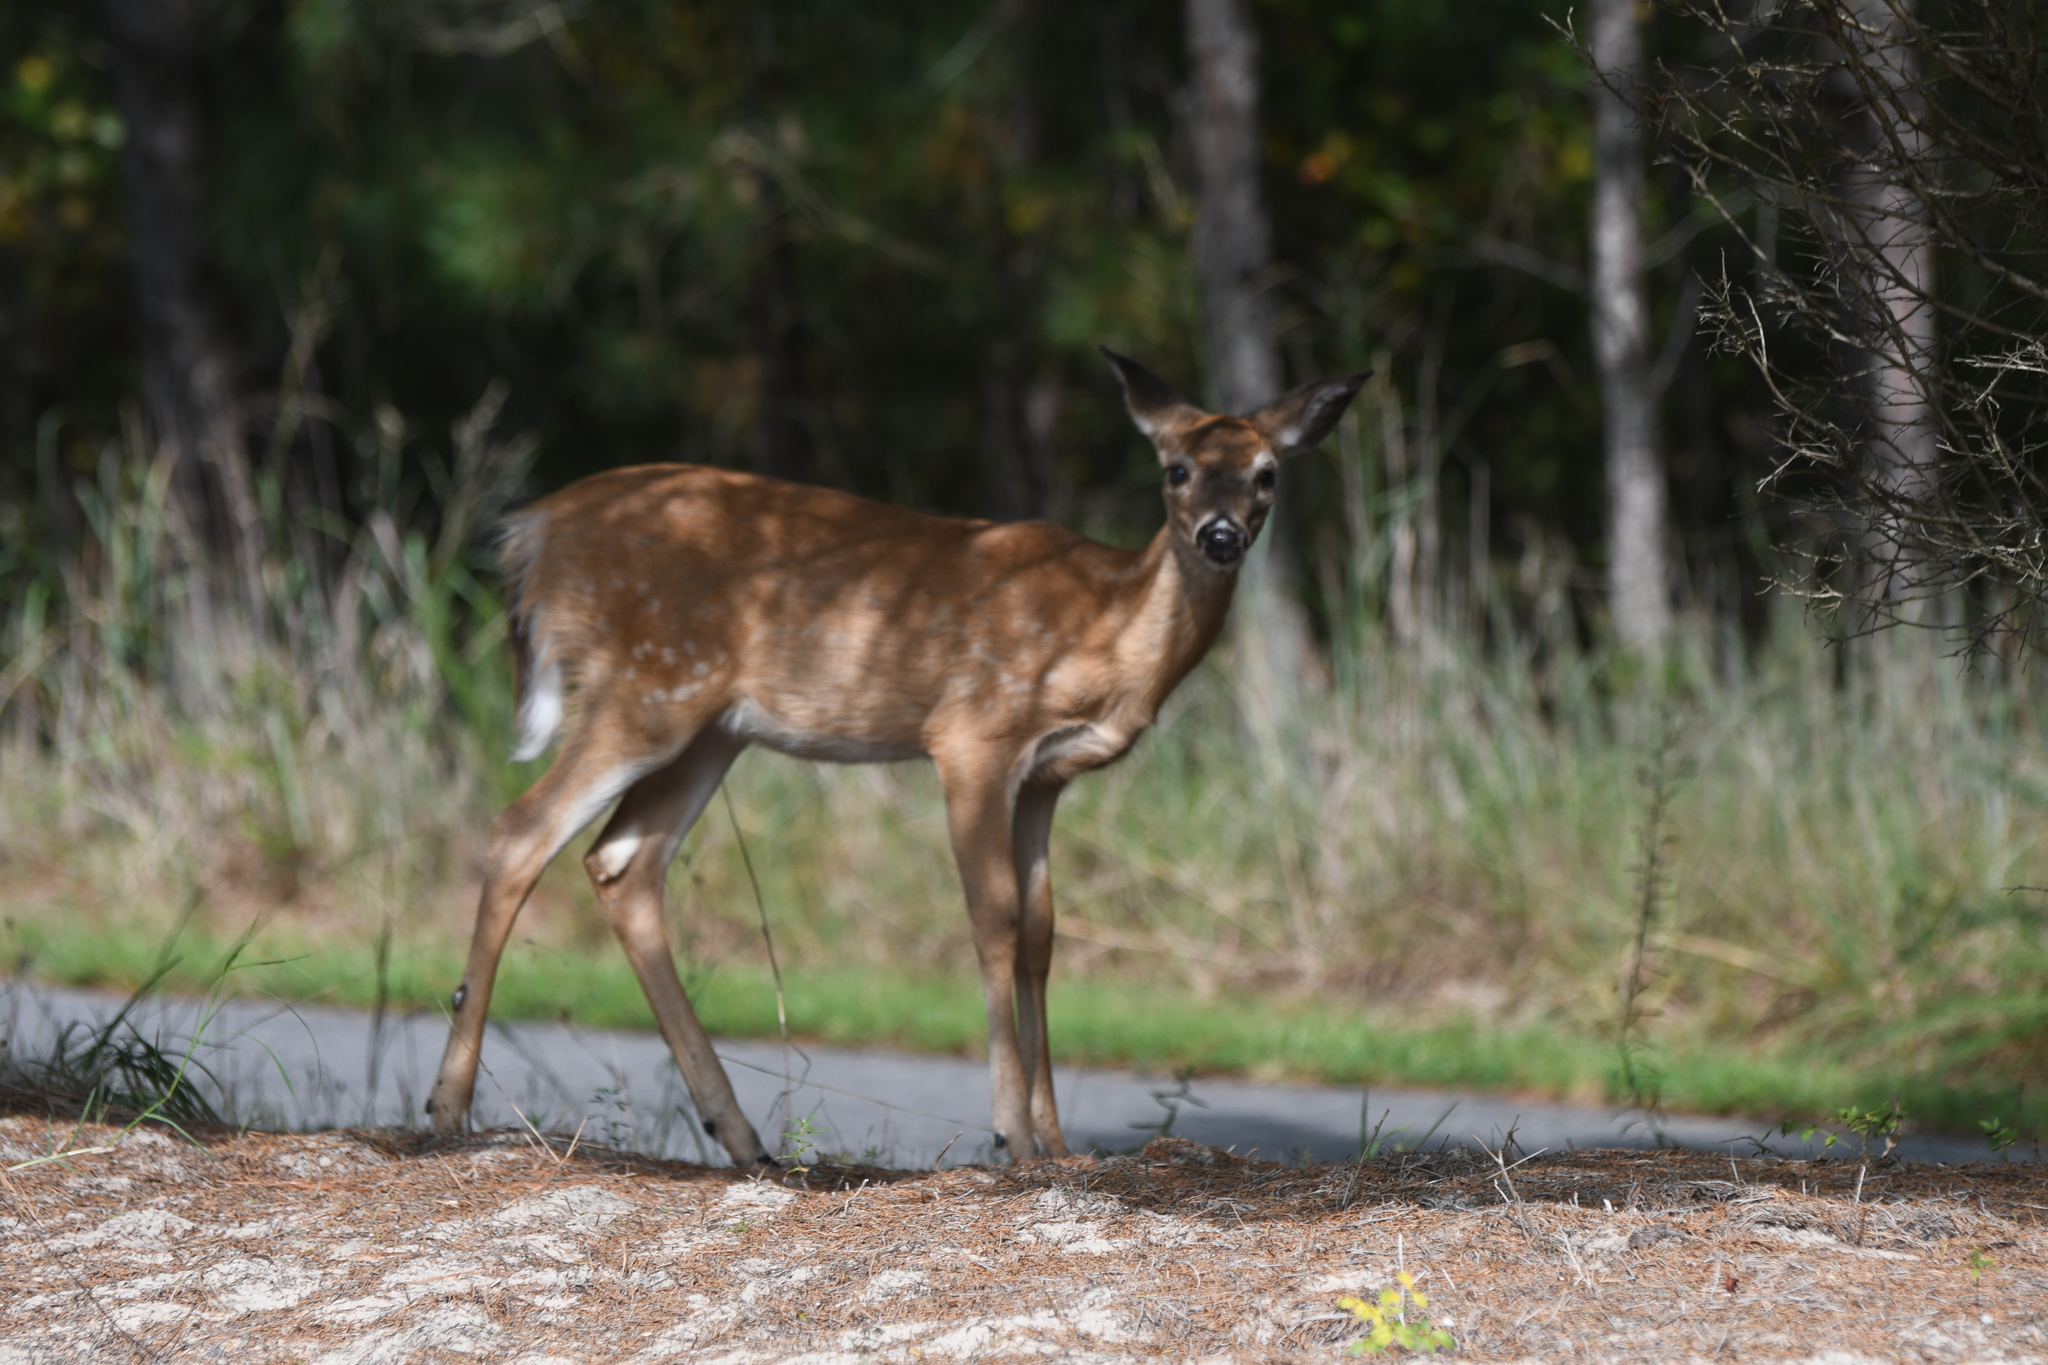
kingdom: Animalia
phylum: Chordata
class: Mammalia
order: Artiodactyla
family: Cervidae
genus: Odocoileus
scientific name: Odocoileus virginianus
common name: White-tailed deer
